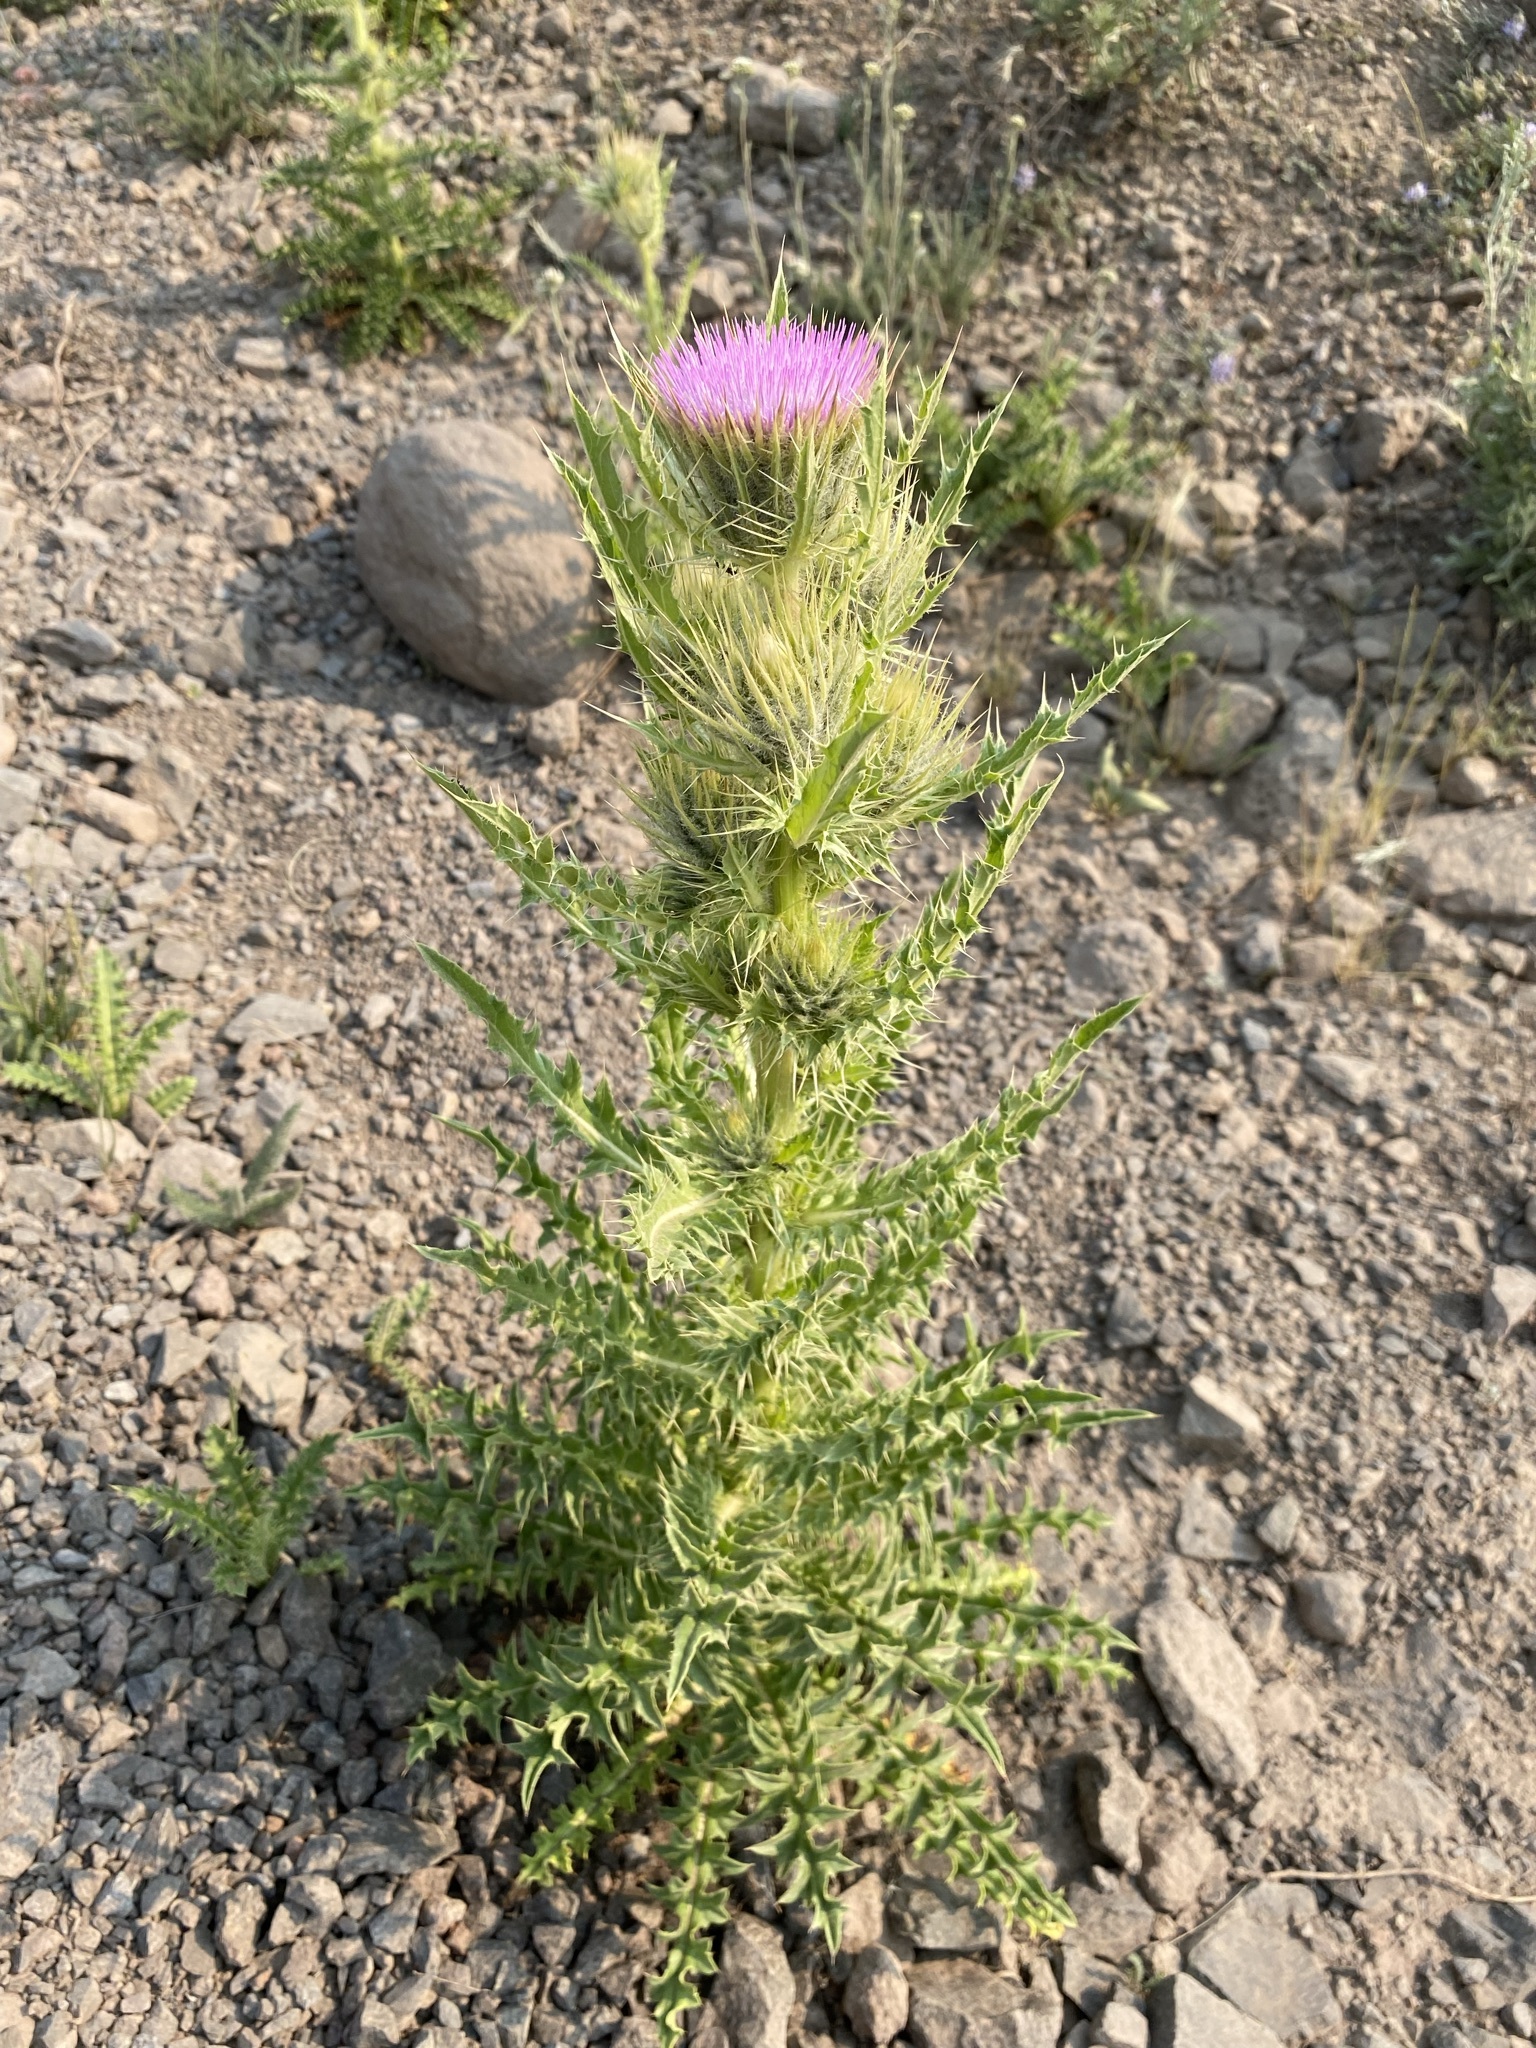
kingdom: Plantae
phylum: Tracheophyta
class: Magnoliopsida
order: Asterales
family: Asteraceae
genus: Cirsium
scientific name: Cirsium peckii
